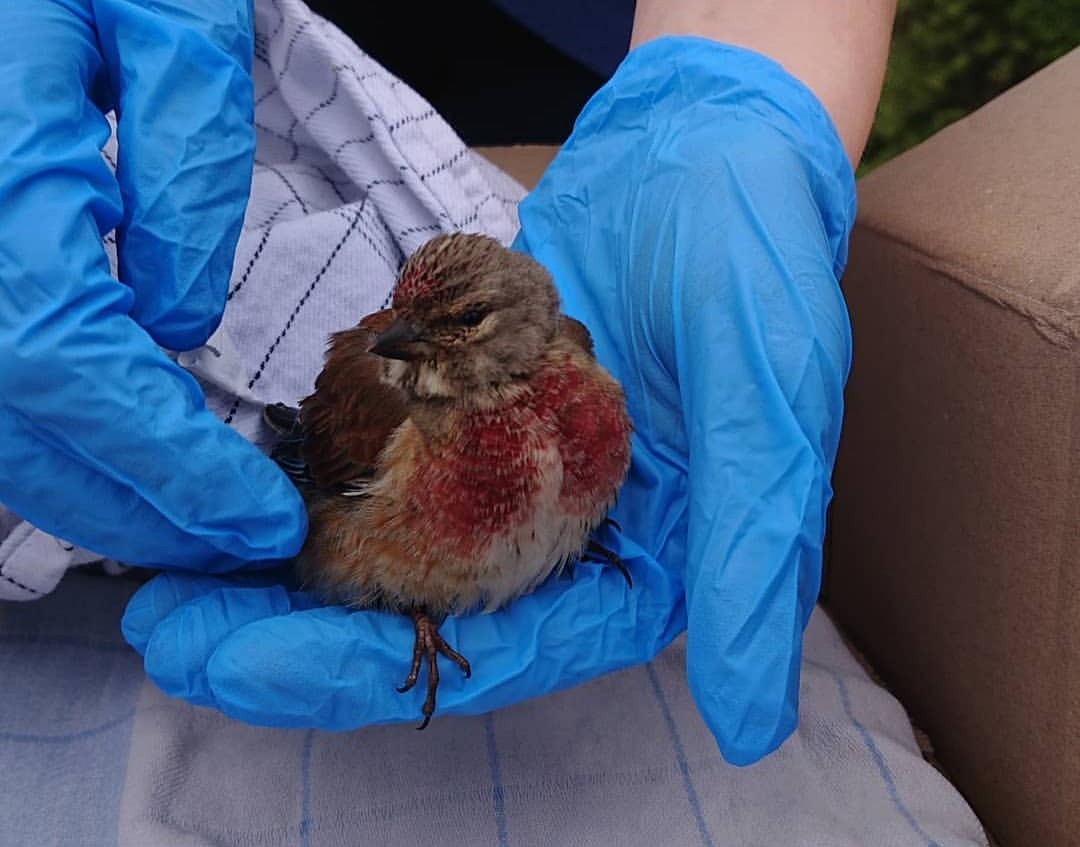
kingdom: Animalia
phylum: Chordata
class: Aves
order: Passeriformes
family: Fringillidae
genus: Linaria
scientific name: Linaria cannabina
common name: Common linnet
